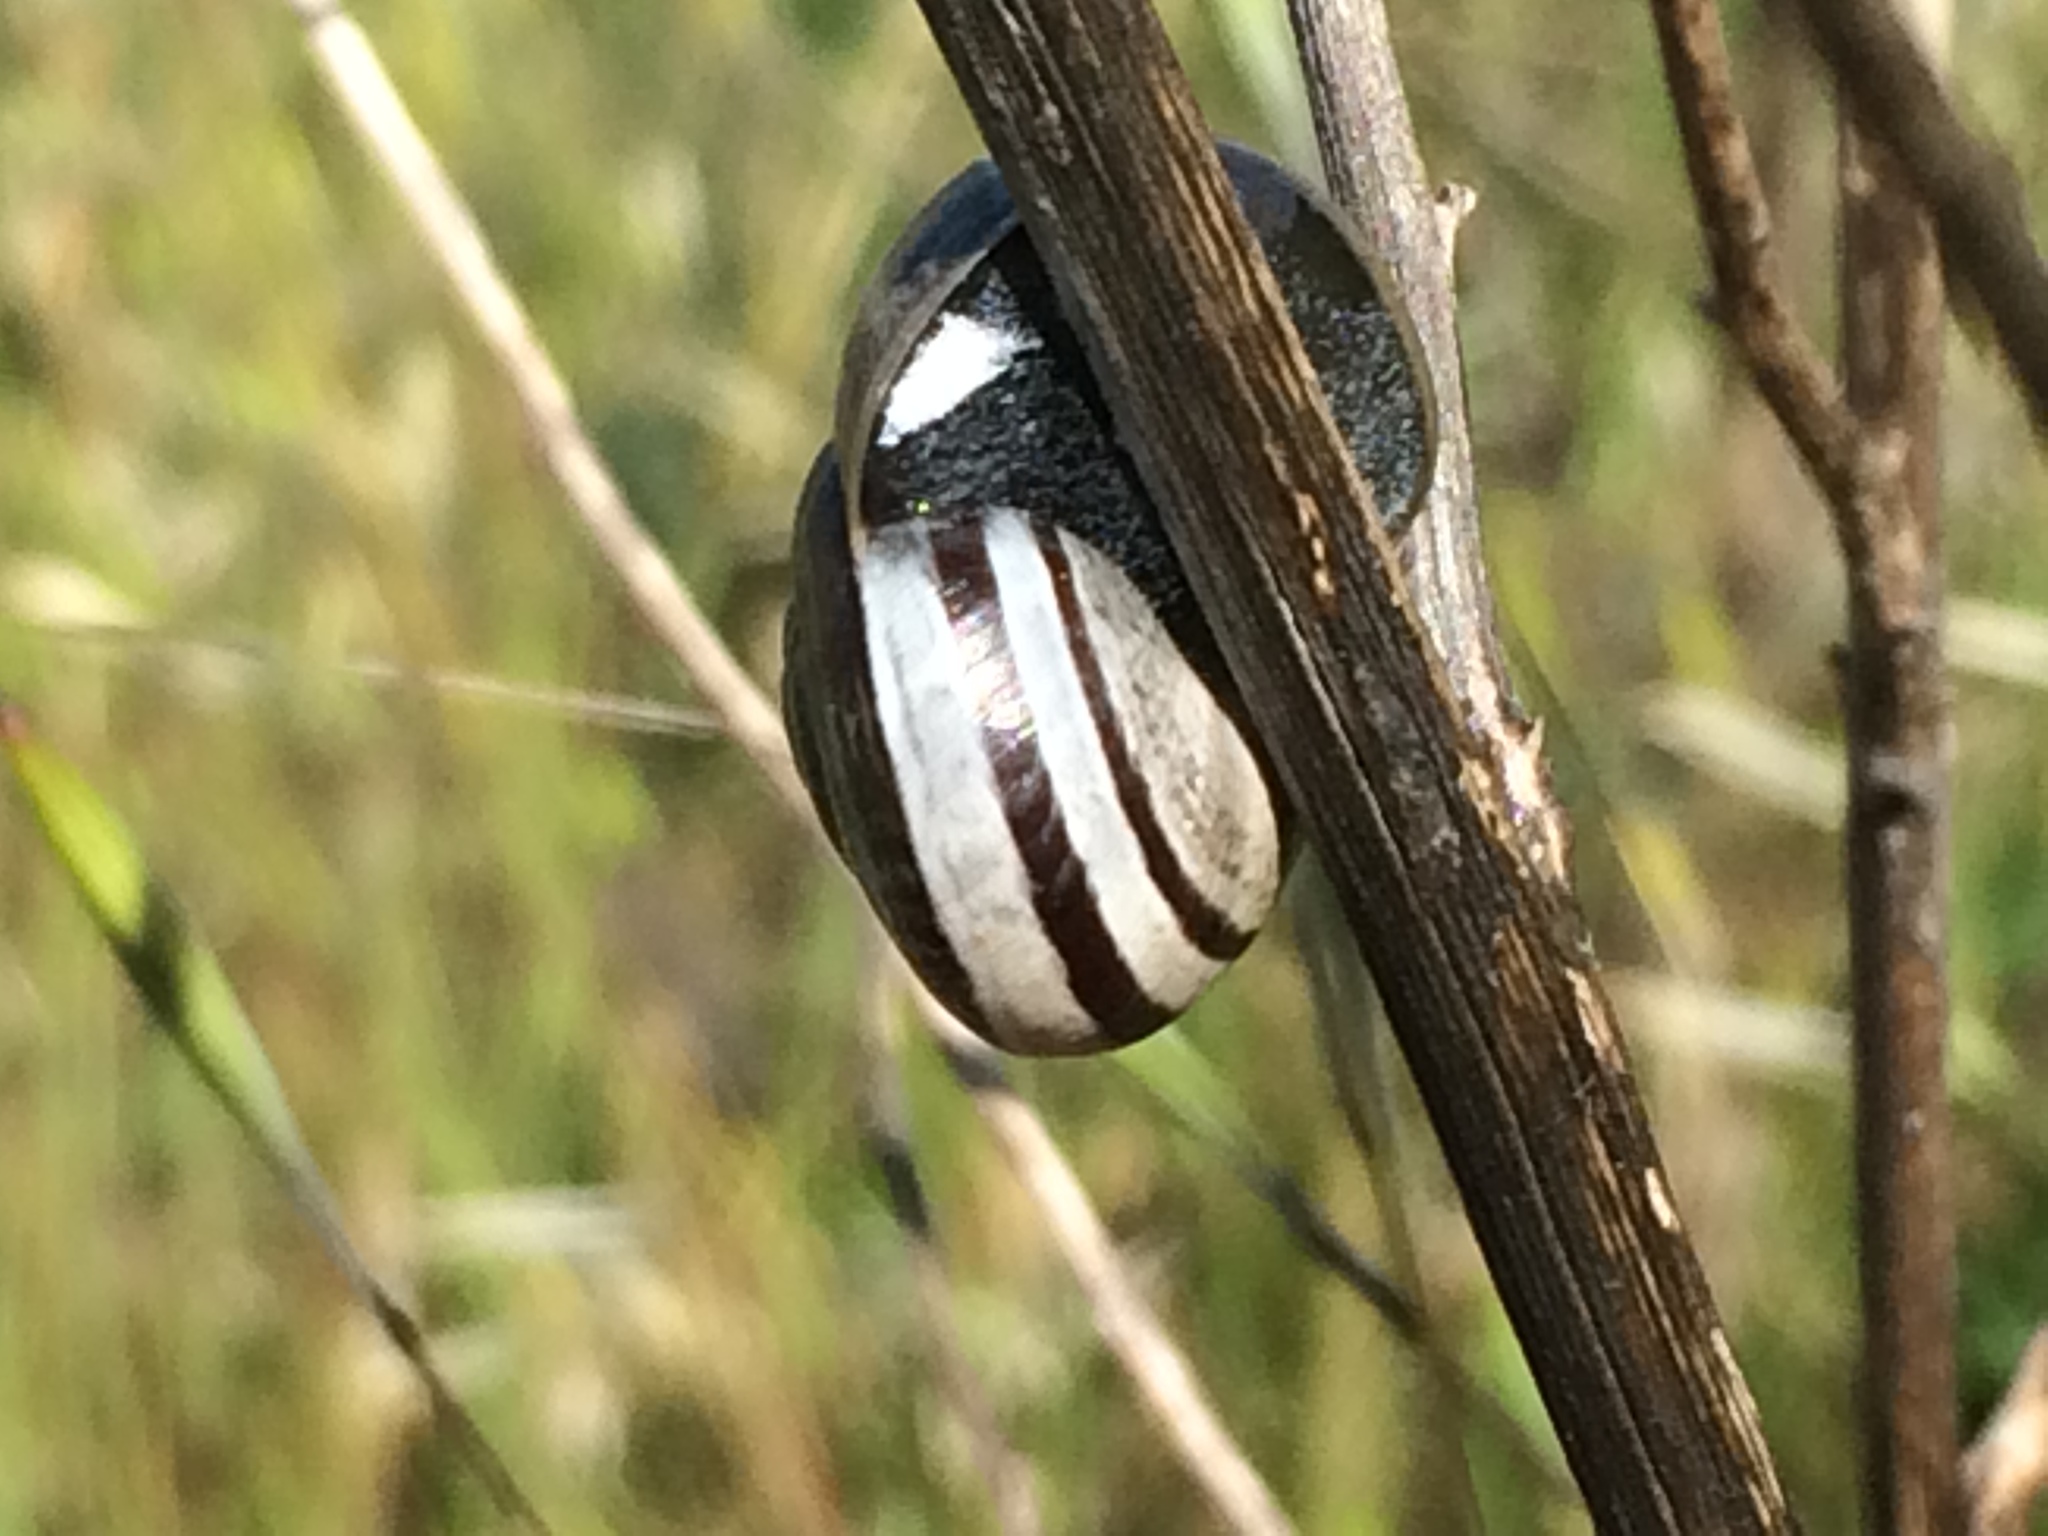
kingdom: Animalia
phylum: Mollusca
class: Gastropoda
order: Stylommatophora
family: Helicidae
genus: Otala
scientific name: Otala lactea
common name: Milk snail
